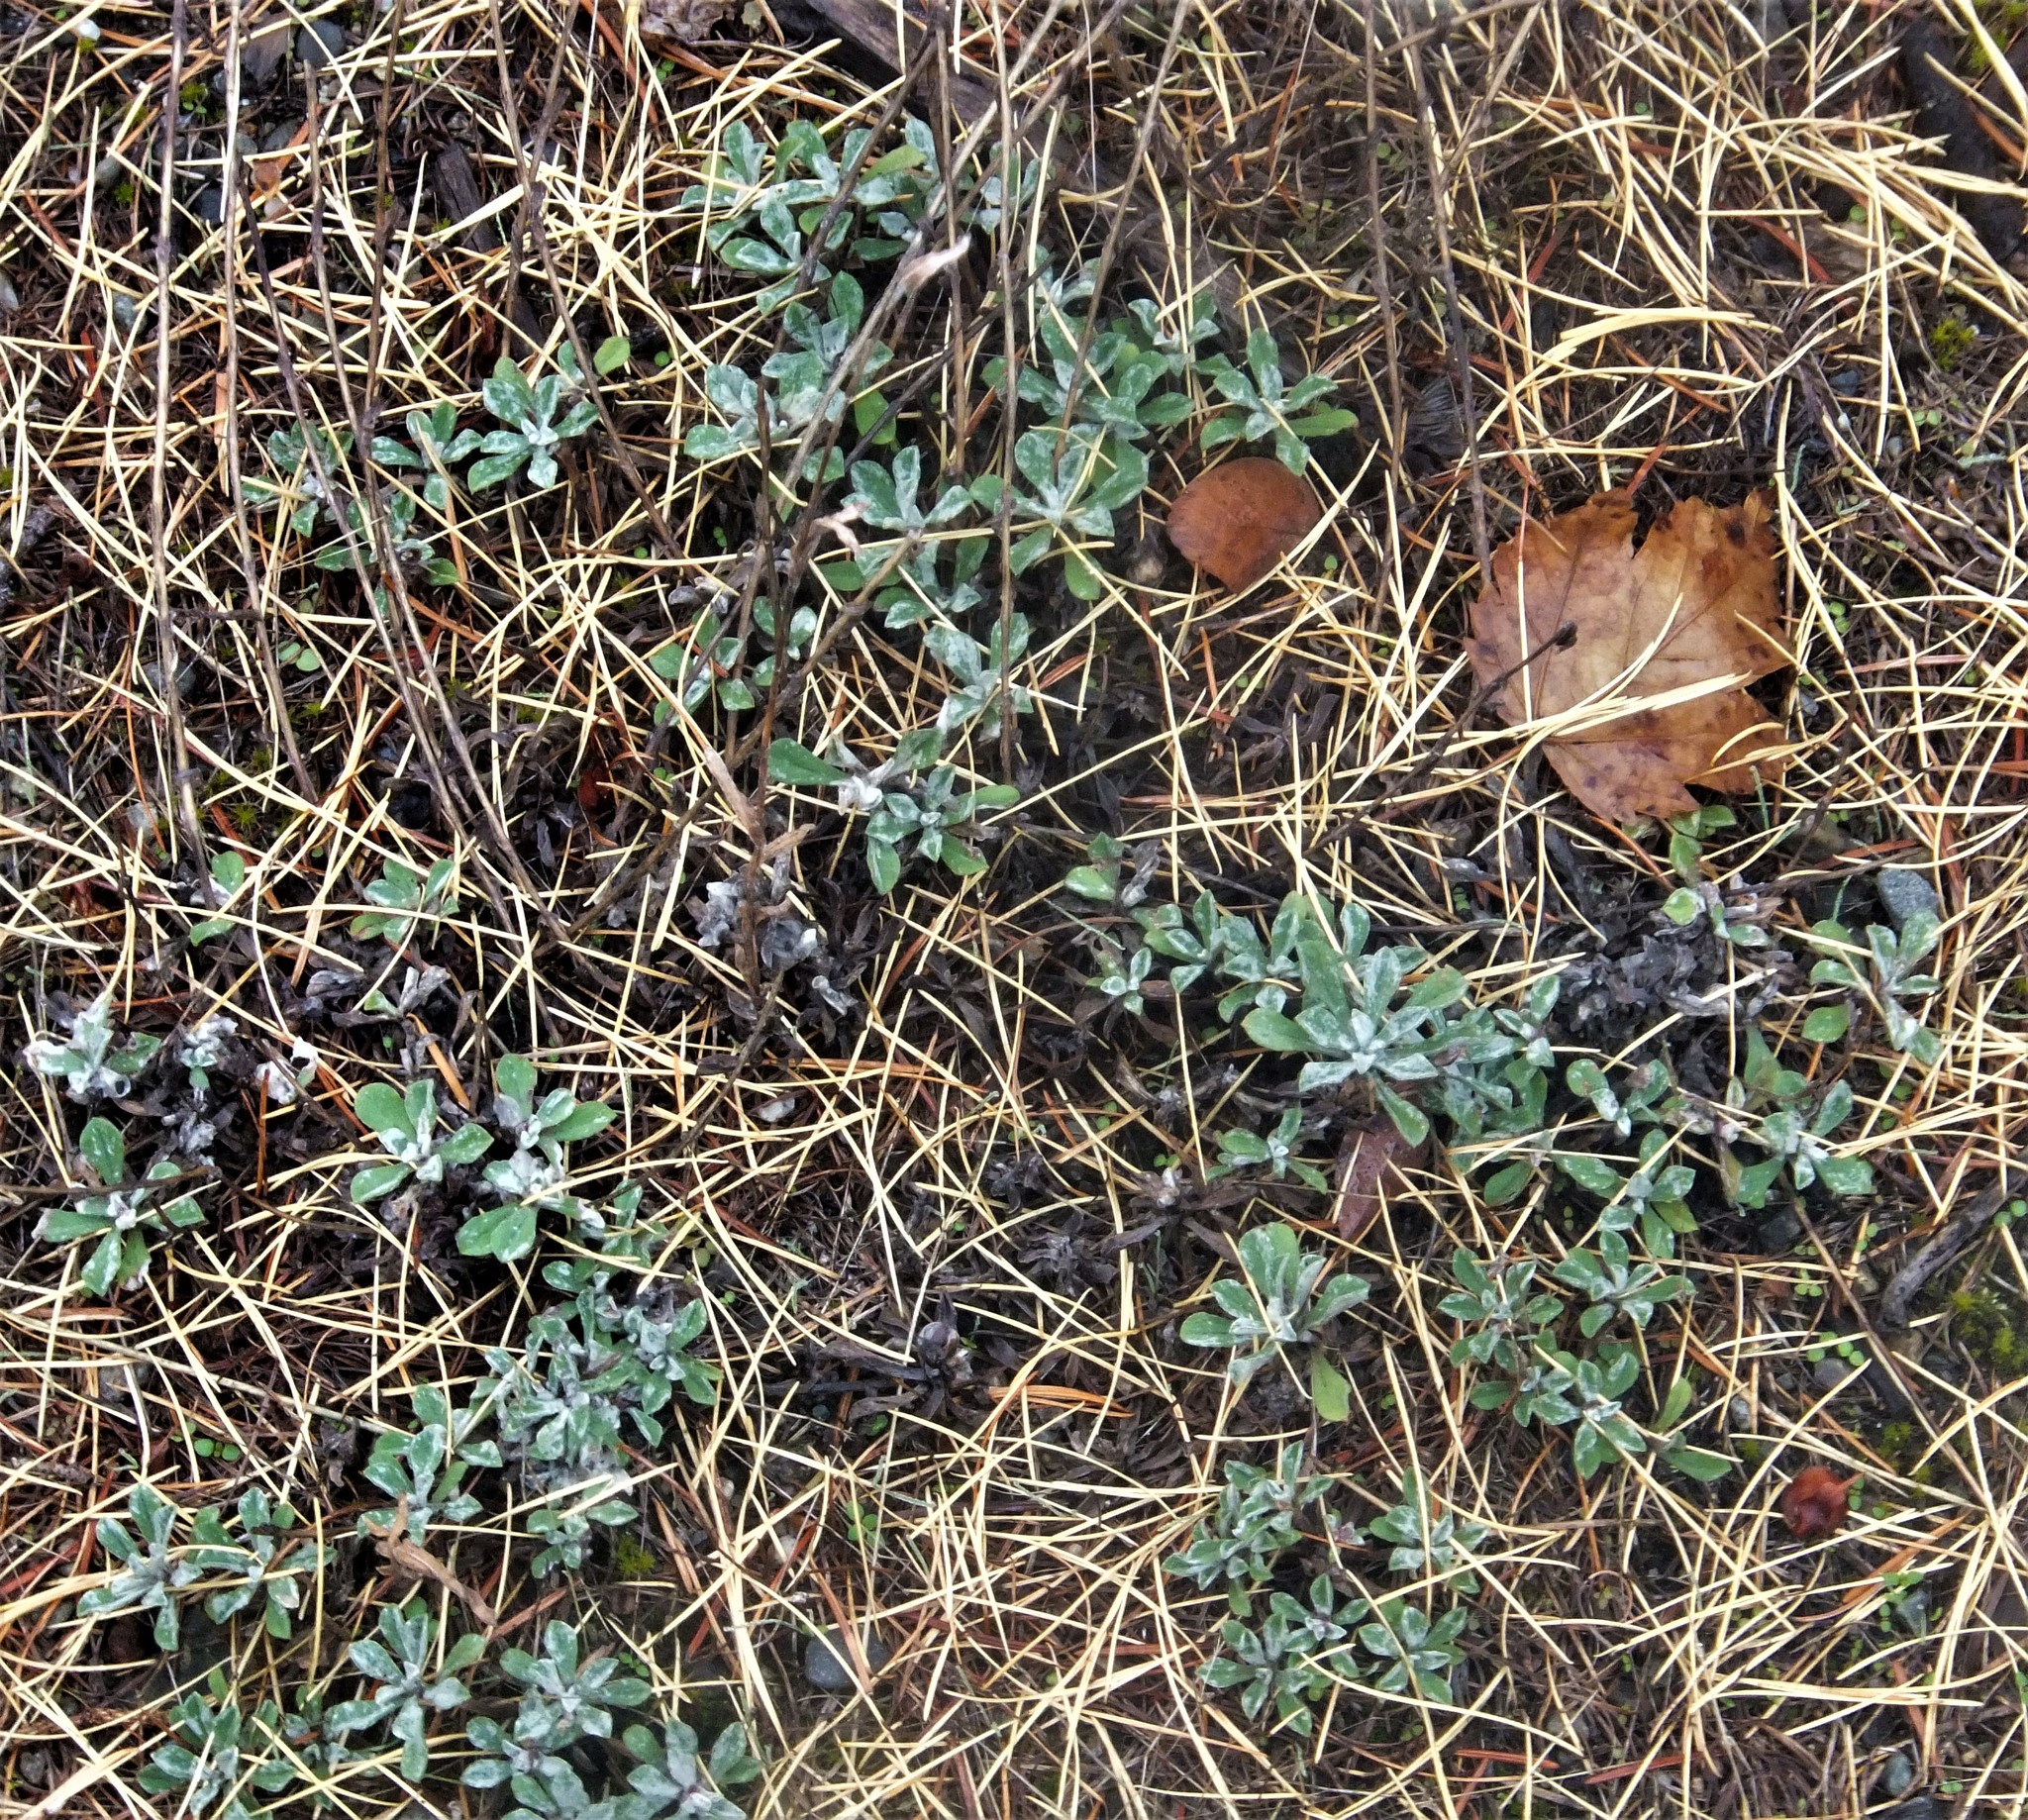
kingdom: Plantae
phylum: Tracheophyta
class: Magnoliopsida
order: Asterales
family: Asteraceae
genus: Antennaria
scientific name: Antennaria umbrinella
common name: Brown pussytoes
